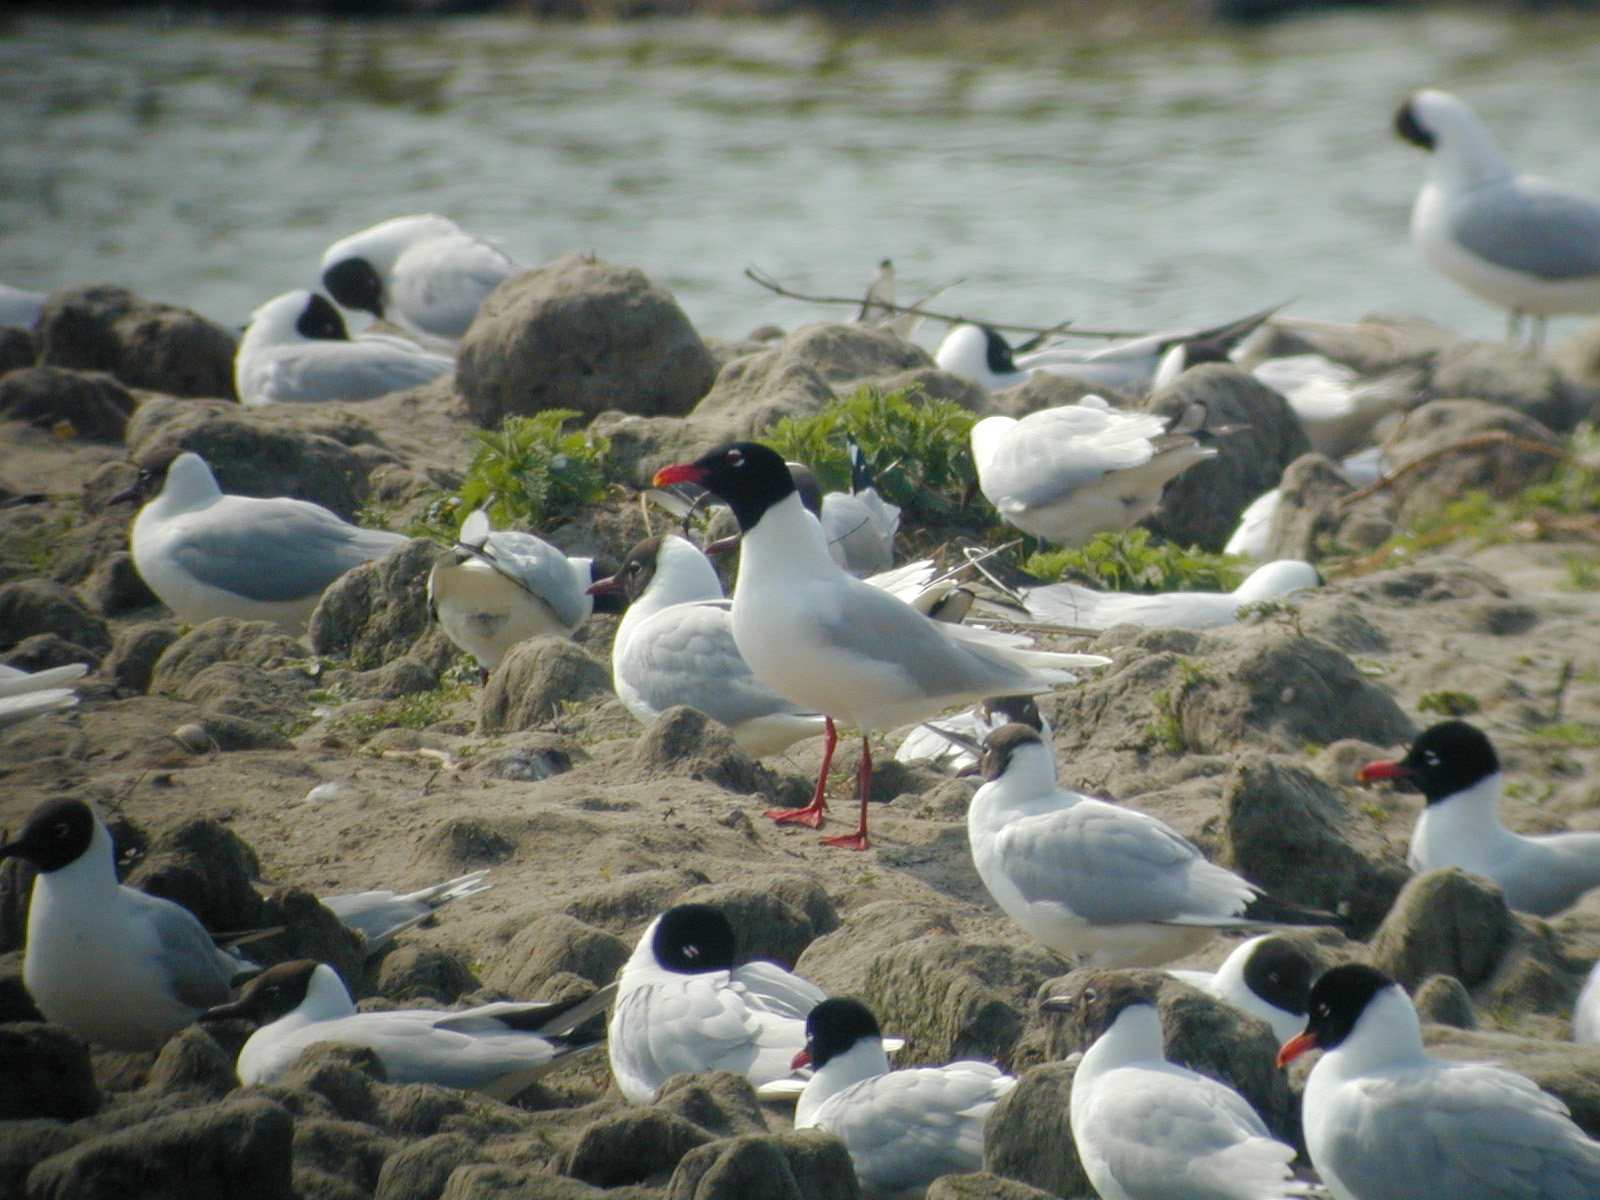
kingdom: Animalia
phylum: Chordata
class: Aves
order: Charadriiformes
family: Laridae
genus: Ichthyaetus
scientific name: Ichthyaetus melanocephalus
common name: Mediterranean gull
